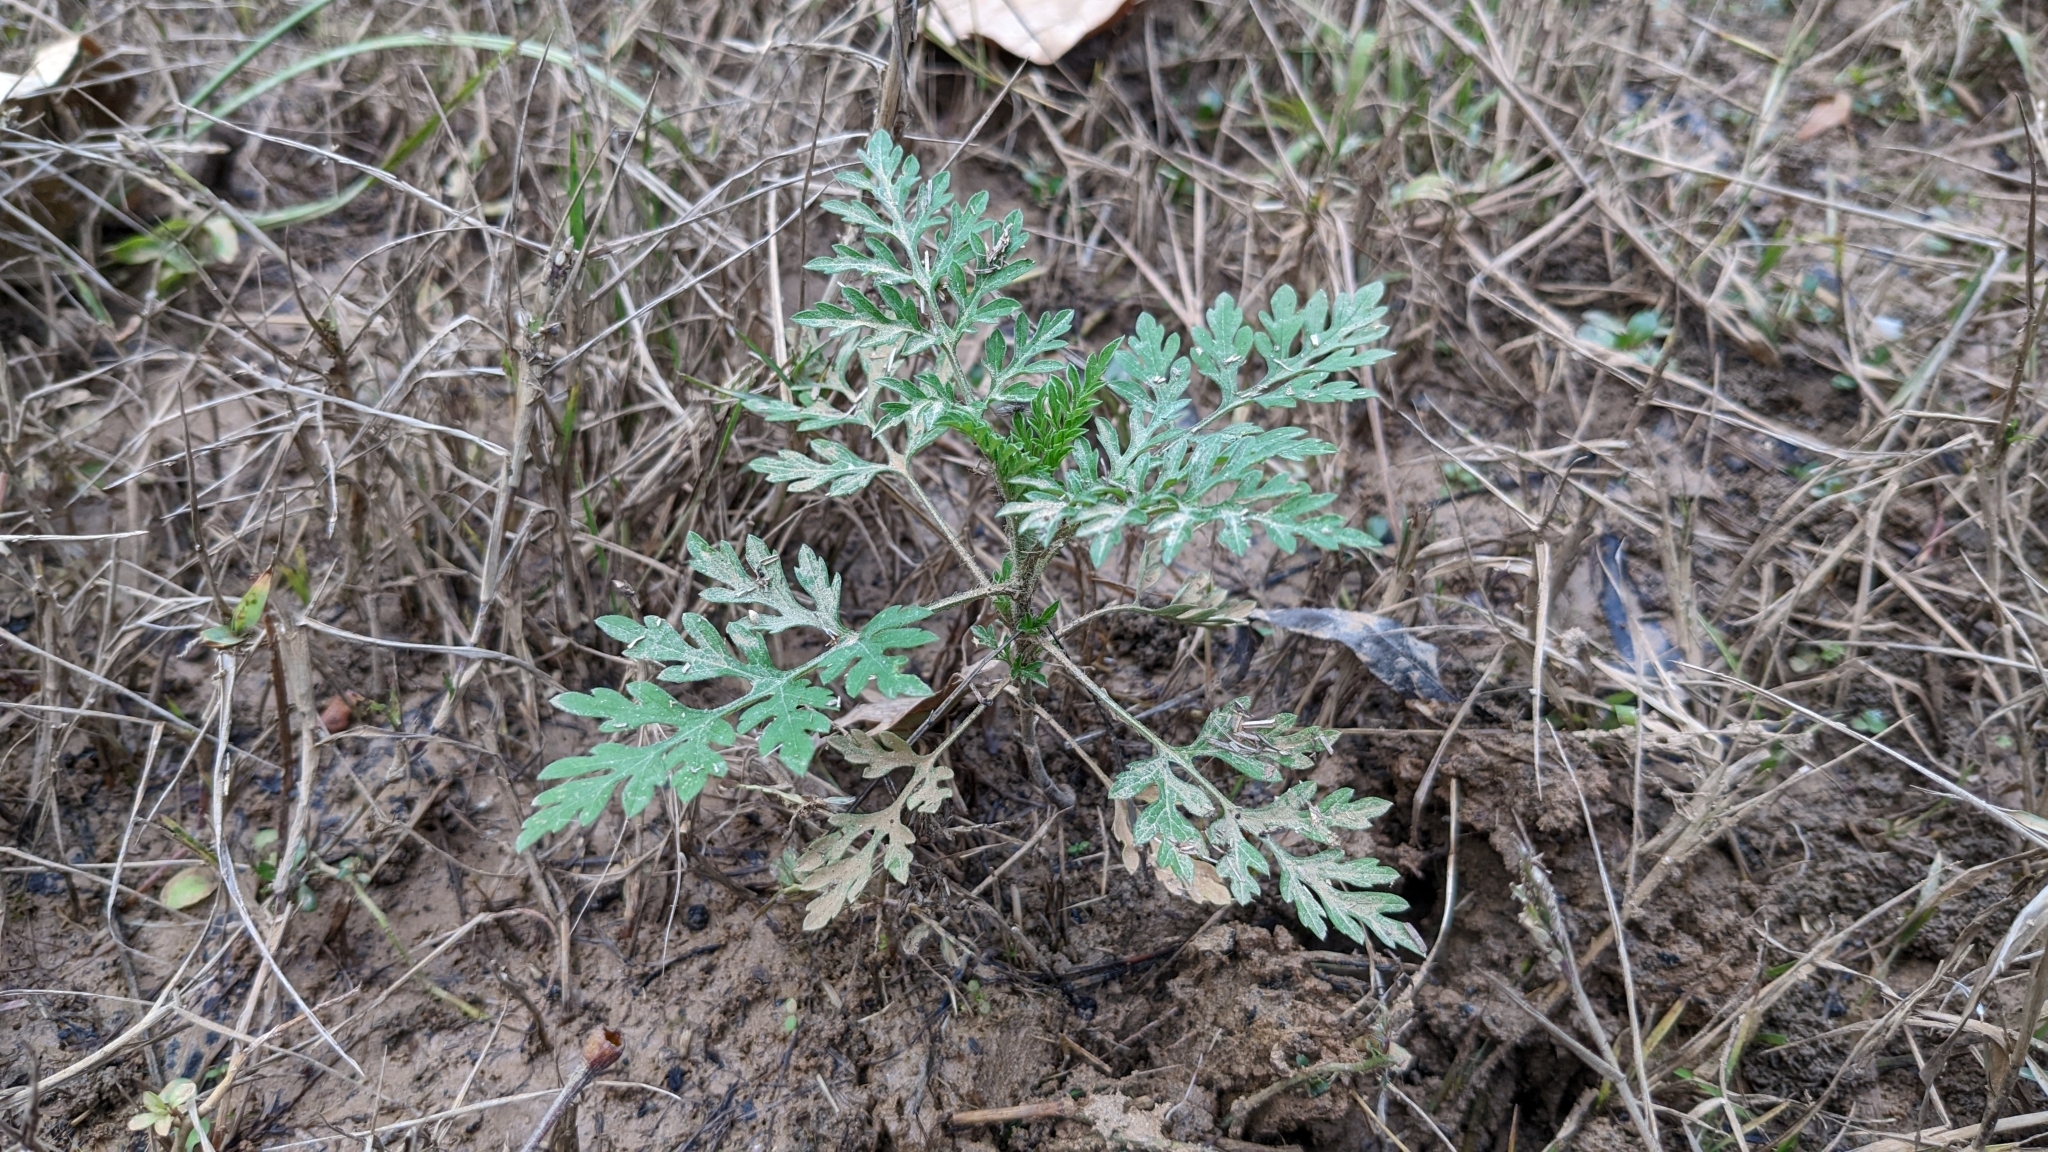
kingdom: Plantae
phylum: Tracheophyta
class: Magnoliopsida
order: Asterales
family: Asteraceae
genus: Ambrosia
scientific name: Ambrosia artemisiifolia
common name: Annual ragweed
